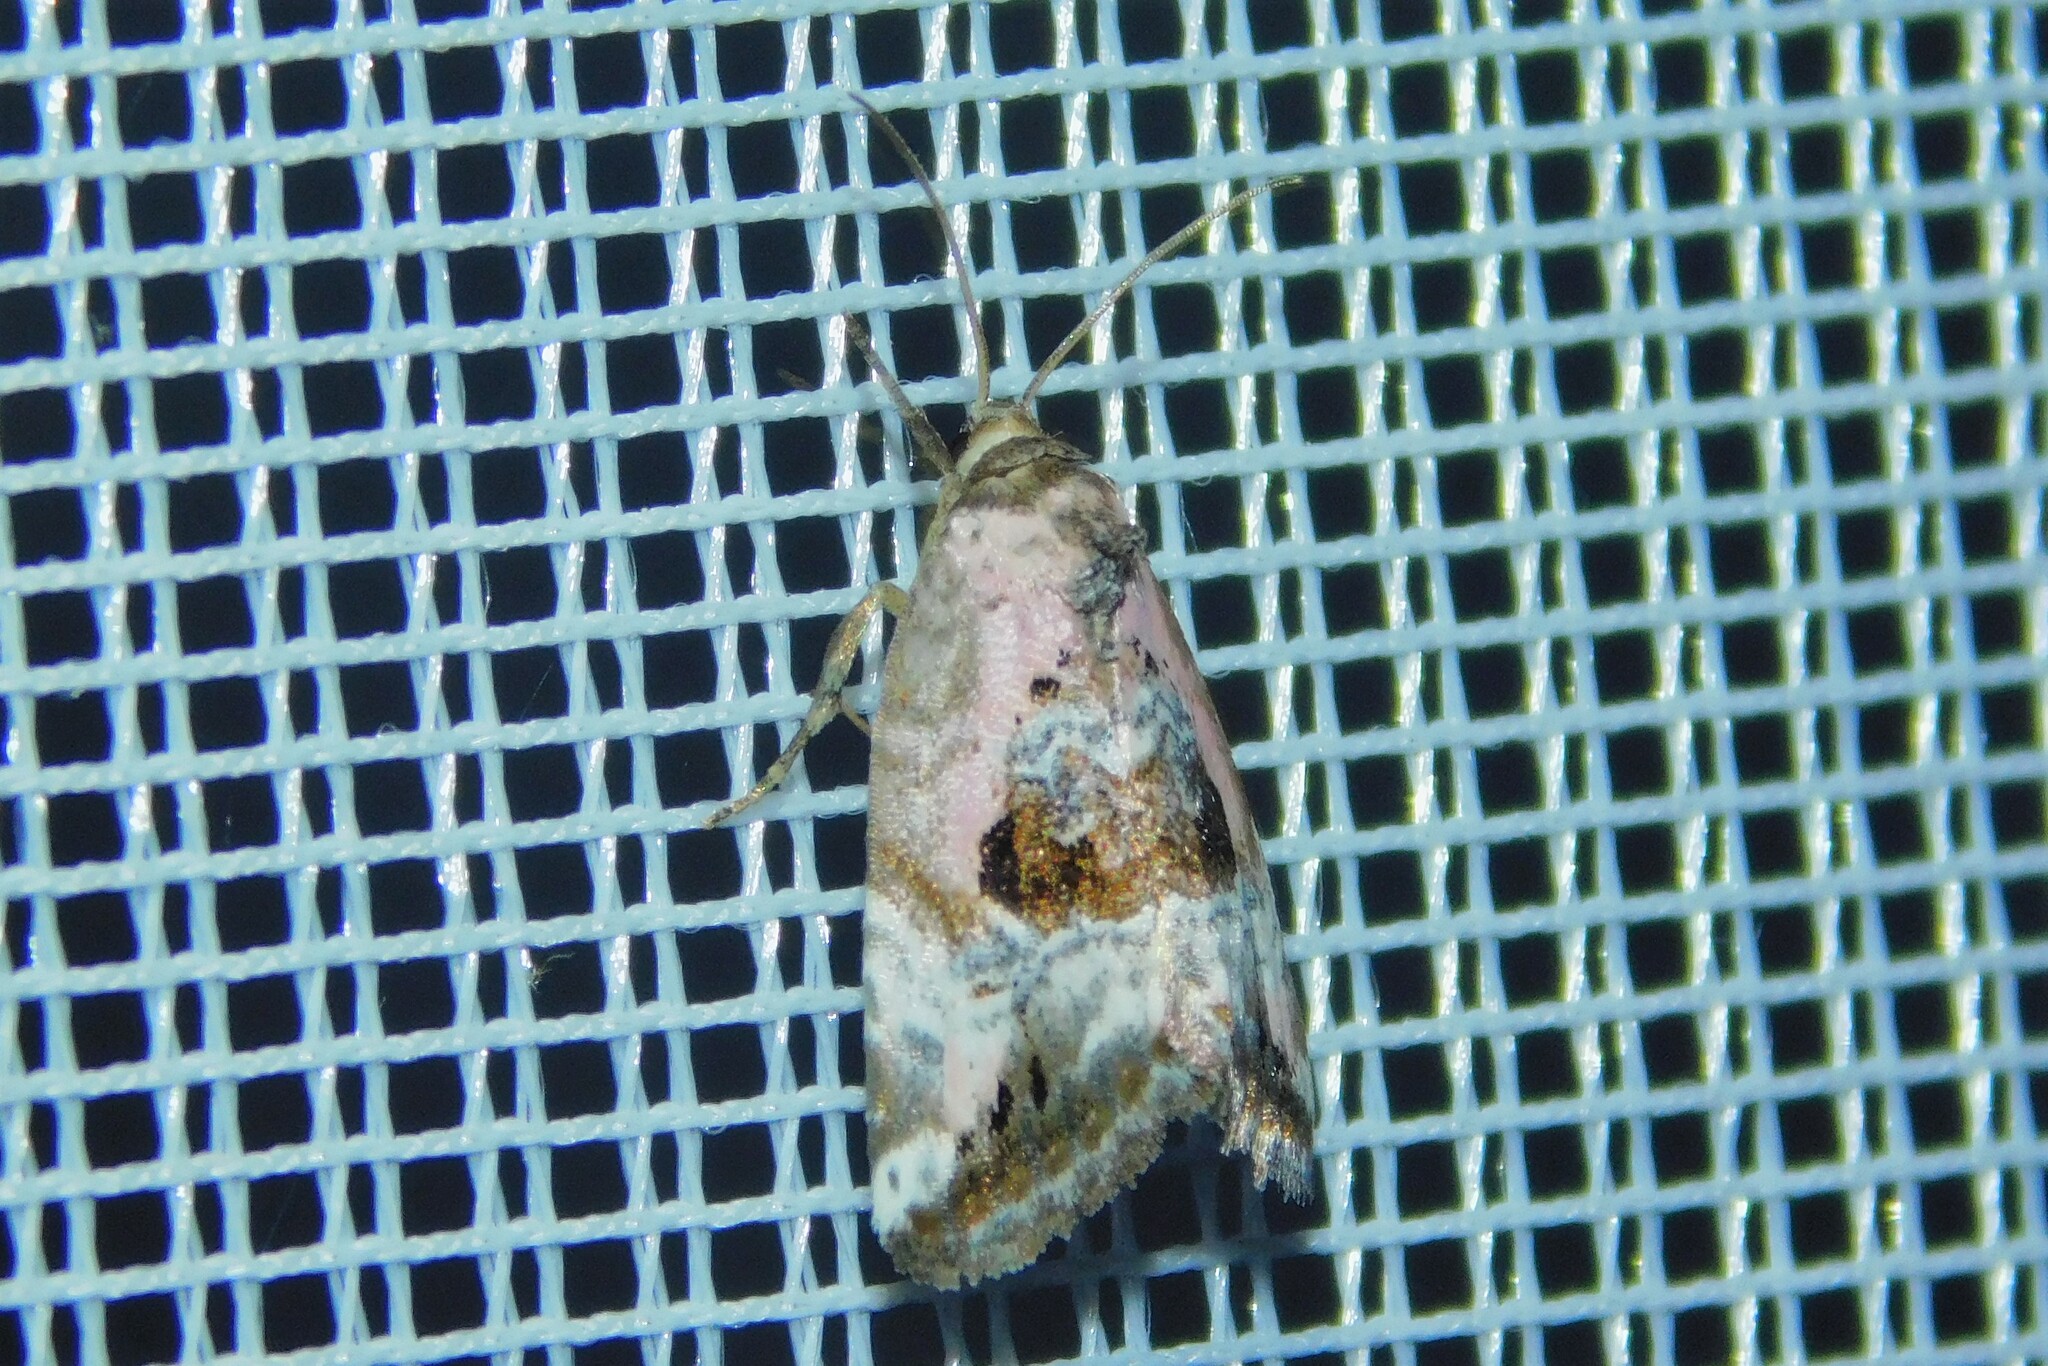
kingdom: Animalia
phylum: Arthropoda
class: Insecta
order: Lepidoptera
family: Noctuidae
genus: Elaphria
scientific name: Elaphria venustula
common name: Rosy marbled
